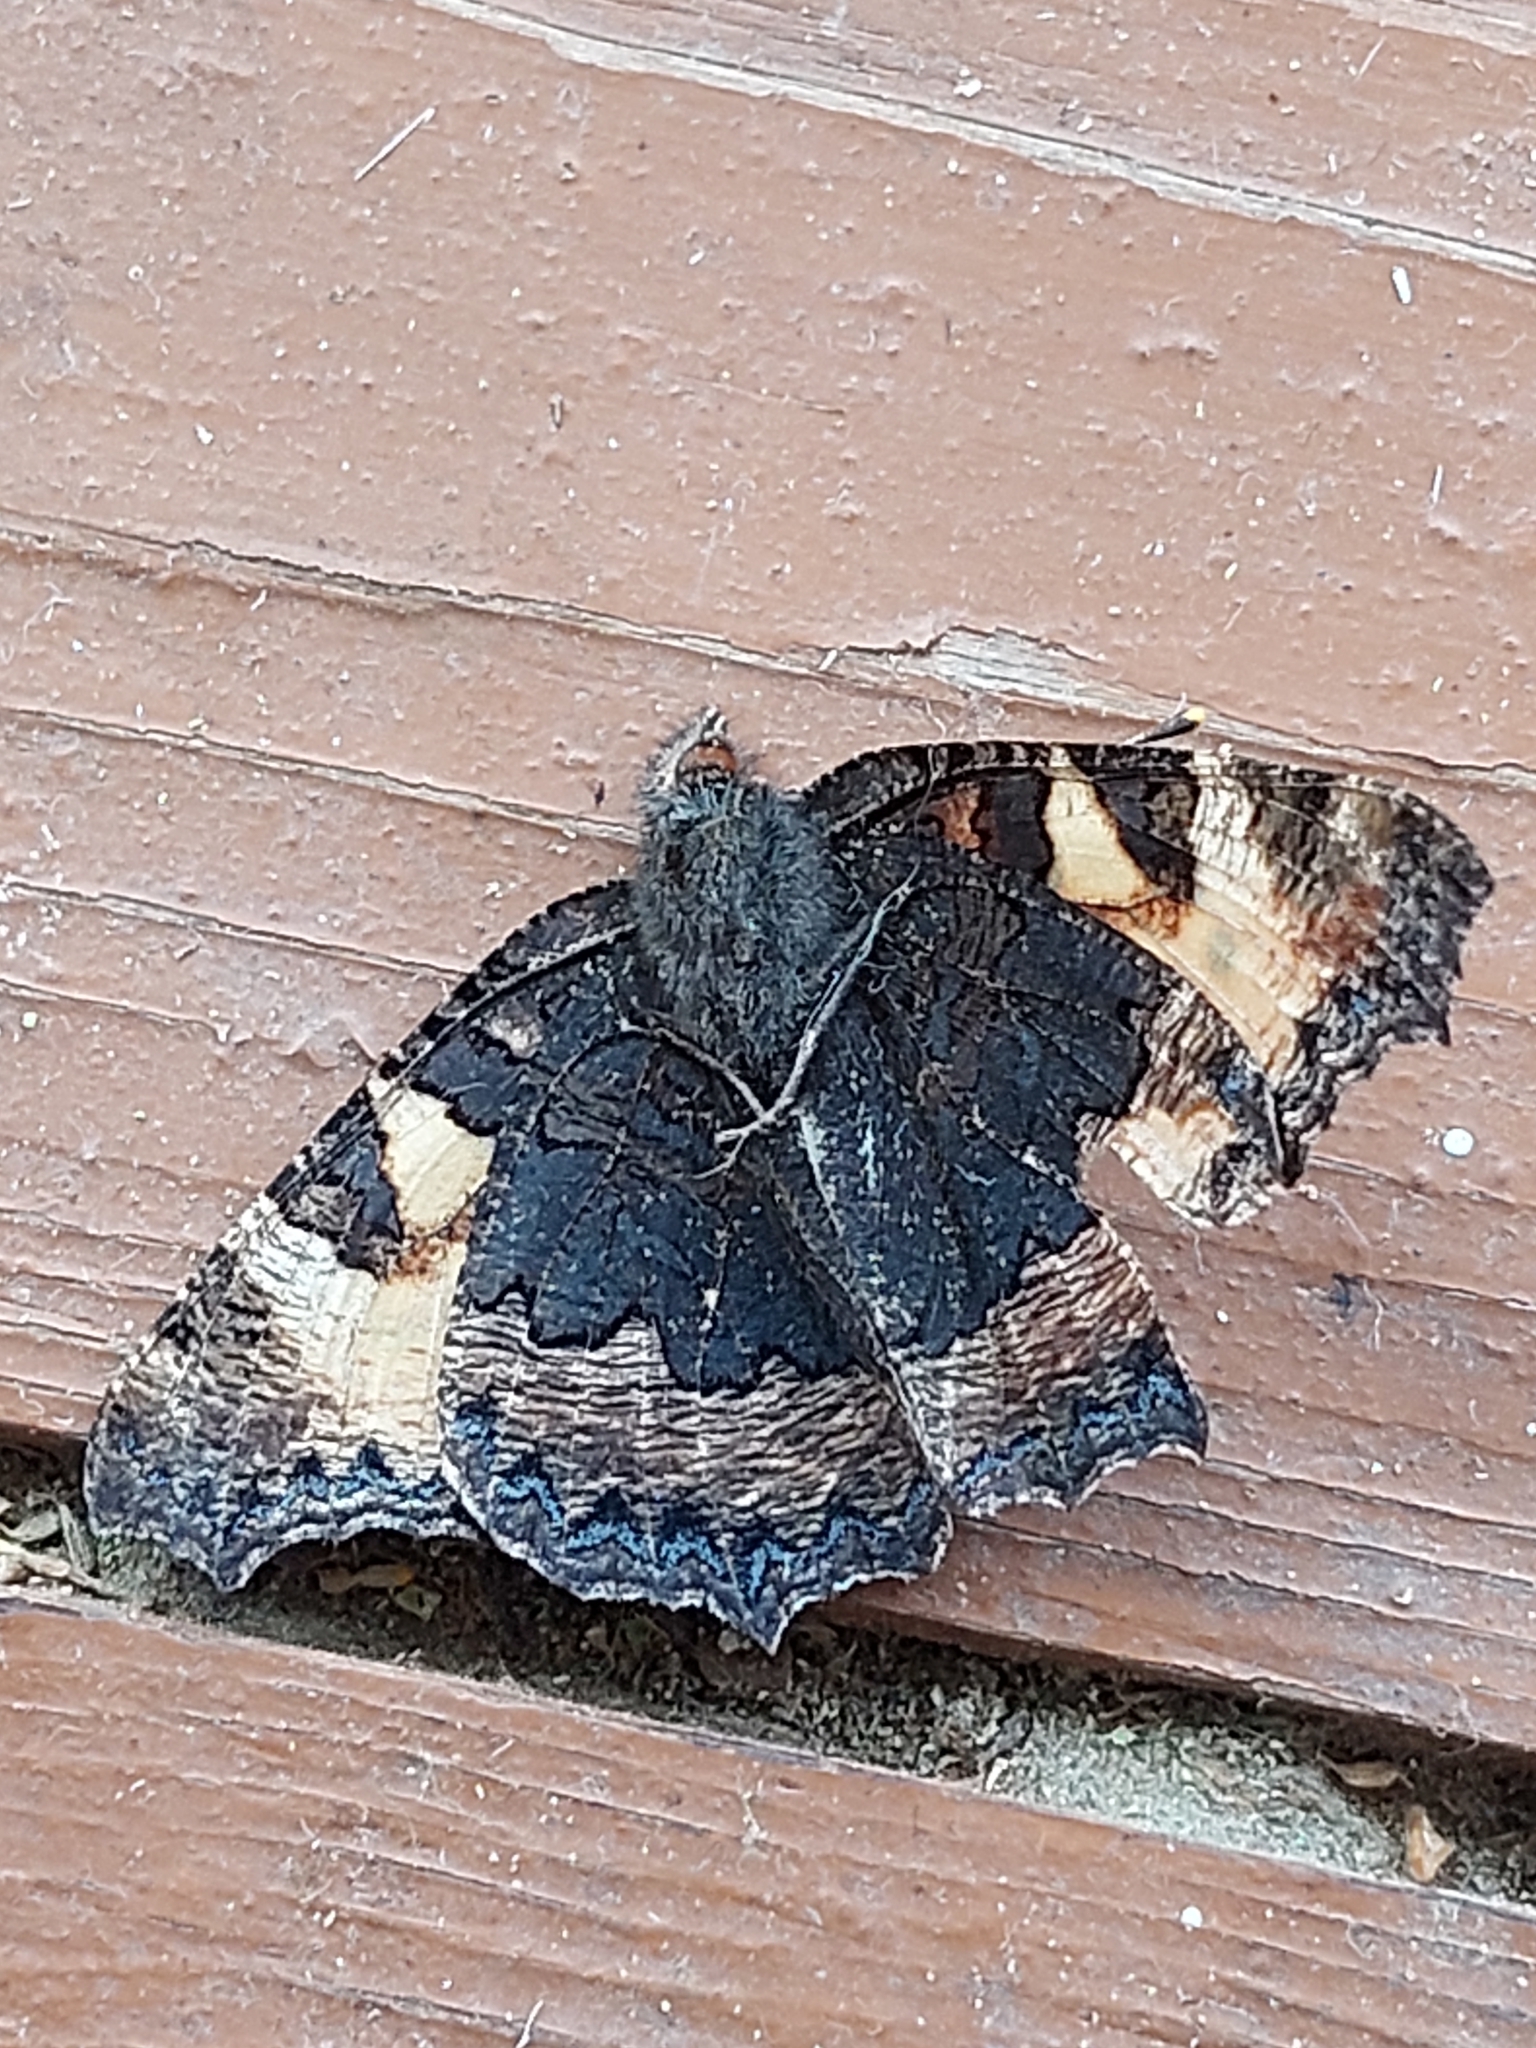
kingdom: Animalia
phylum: Arthropoda
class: Insecta
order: Lepidoptera
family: Nymphalidae
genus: Aglais
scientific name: Aglais urticae
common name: Small tortoiseshell
